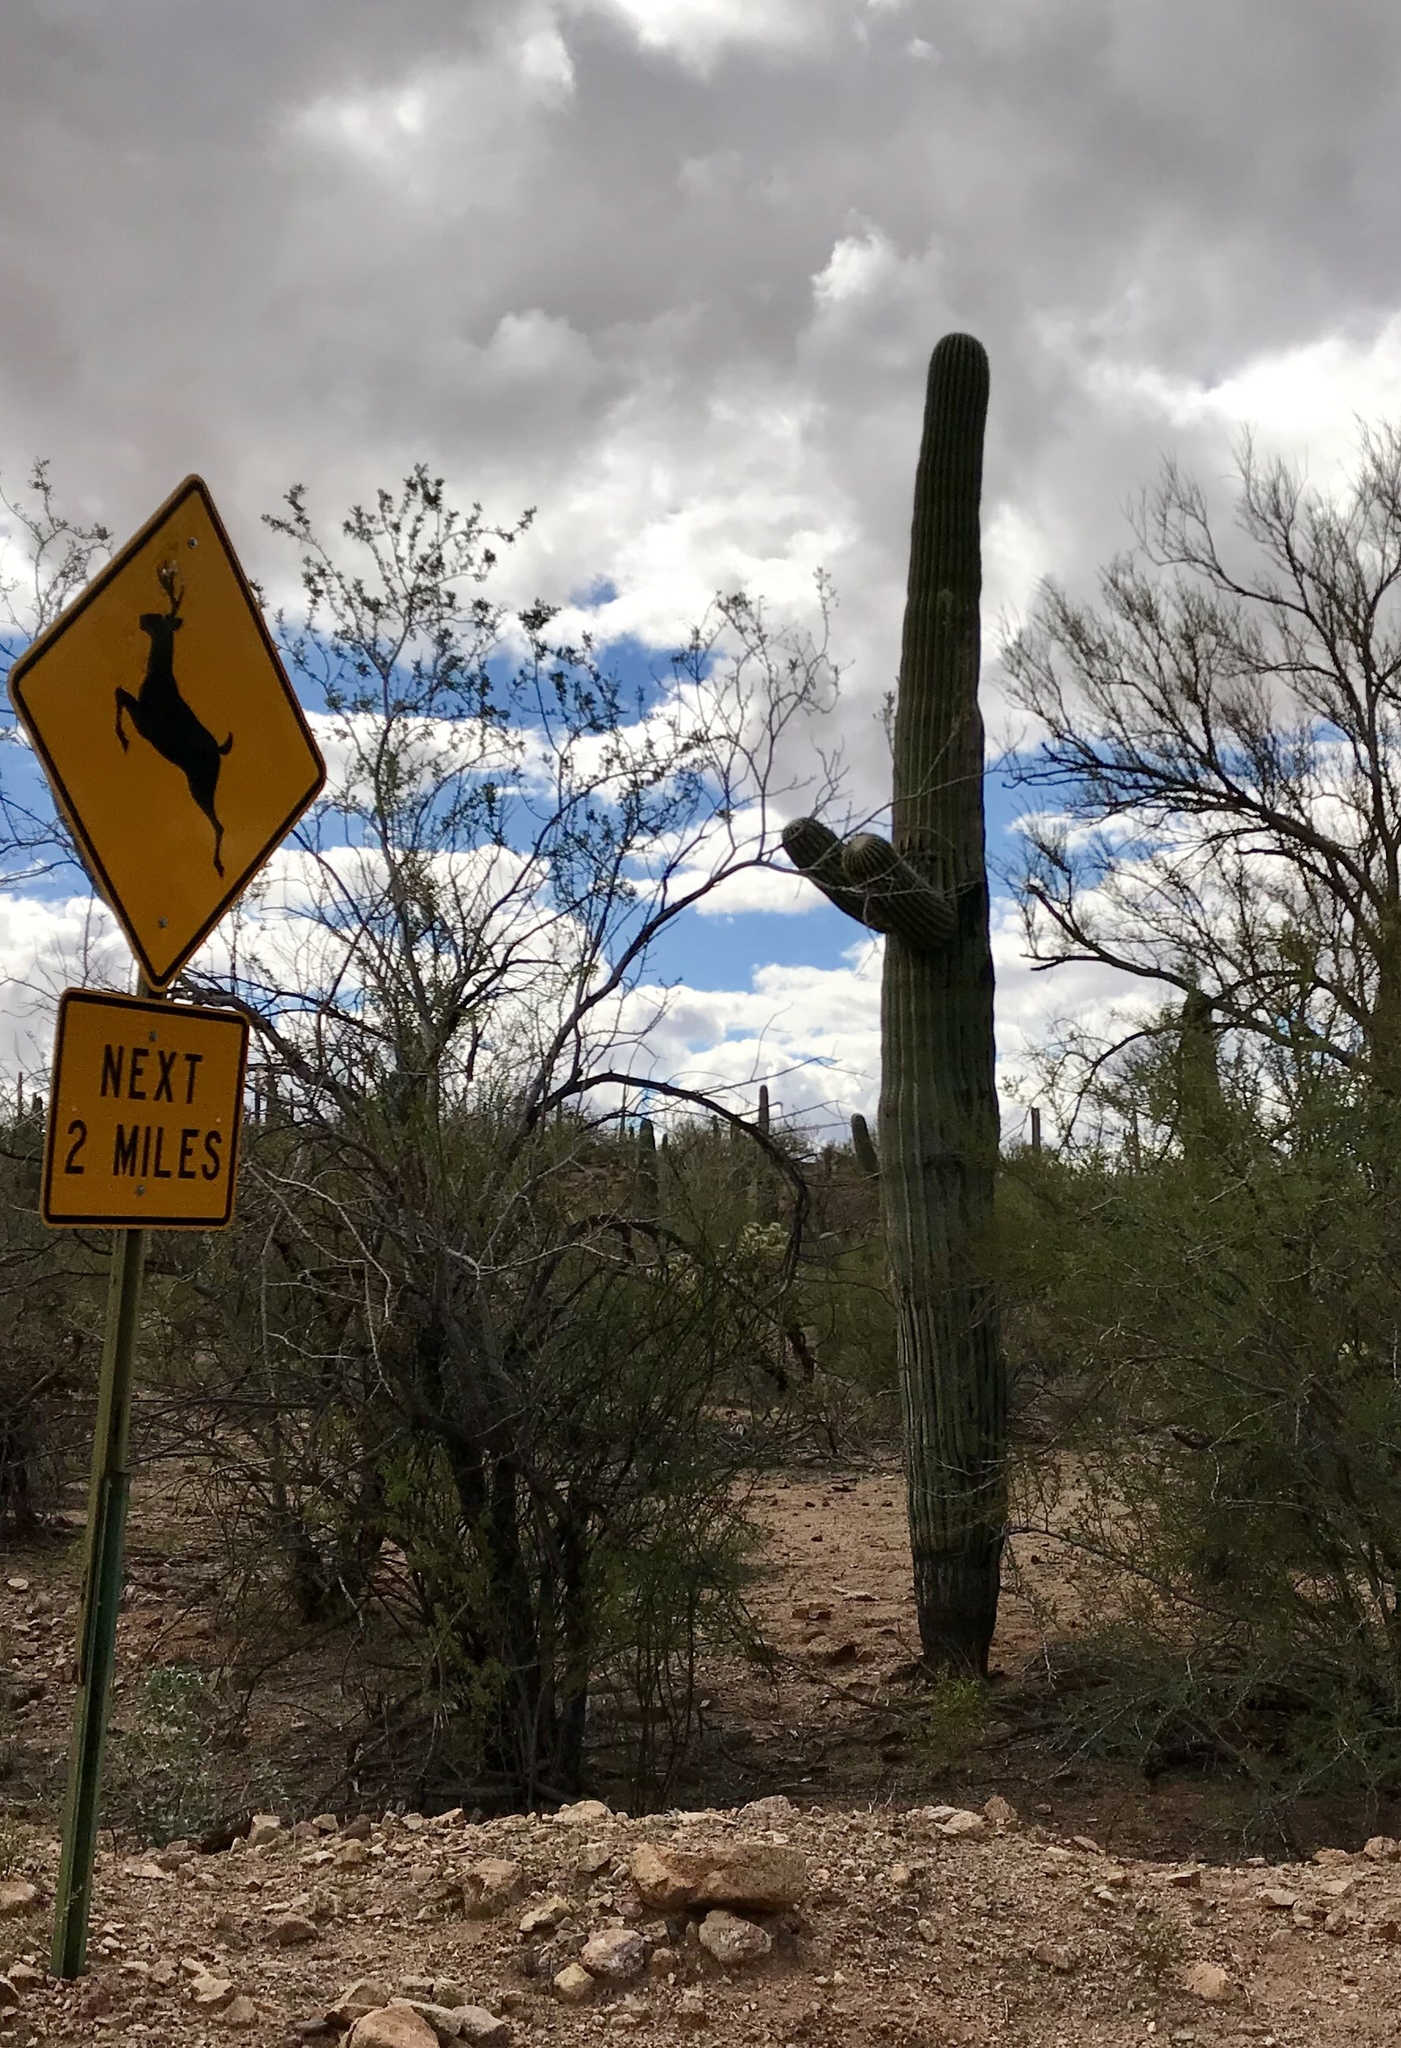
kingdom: Plantae
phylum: Tracheophyta
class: Magnoliopsida
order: Caryophyllales
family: Cactaceae
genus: Carnegiea
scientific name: Carnegiea gigantea
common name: Saguaro
